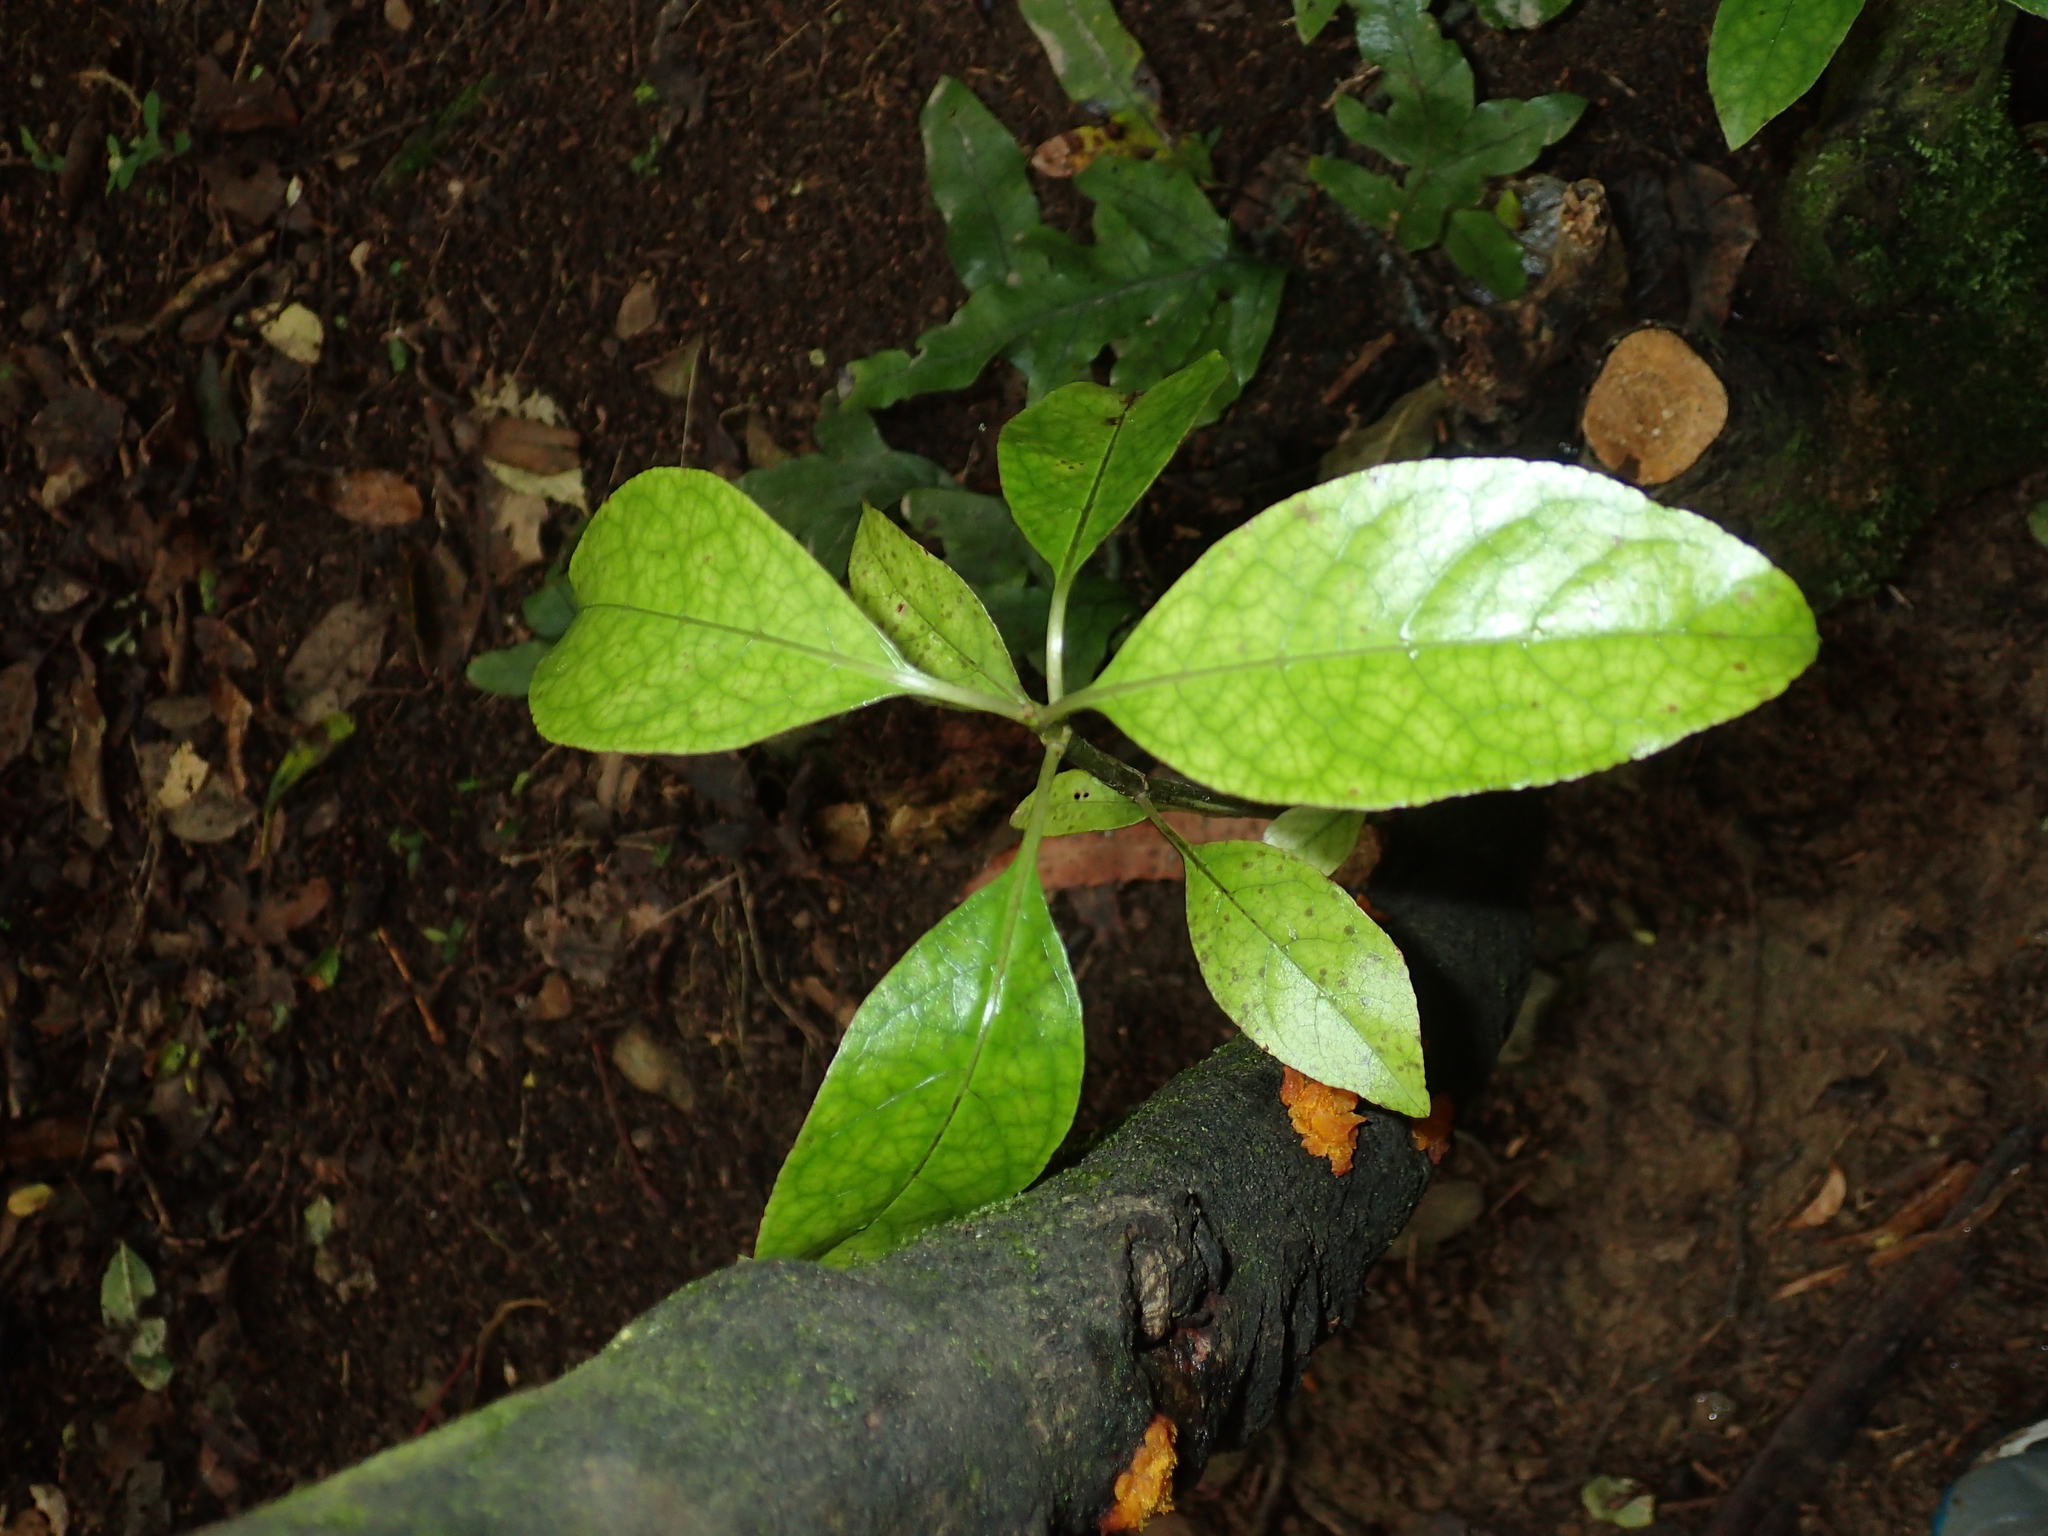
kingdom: Plantae
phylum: Tracheophyta
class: Magnoliopsida
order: Gentianales
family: Rubiaceae
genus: Coprosma
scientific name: Coprosma autumnalis
